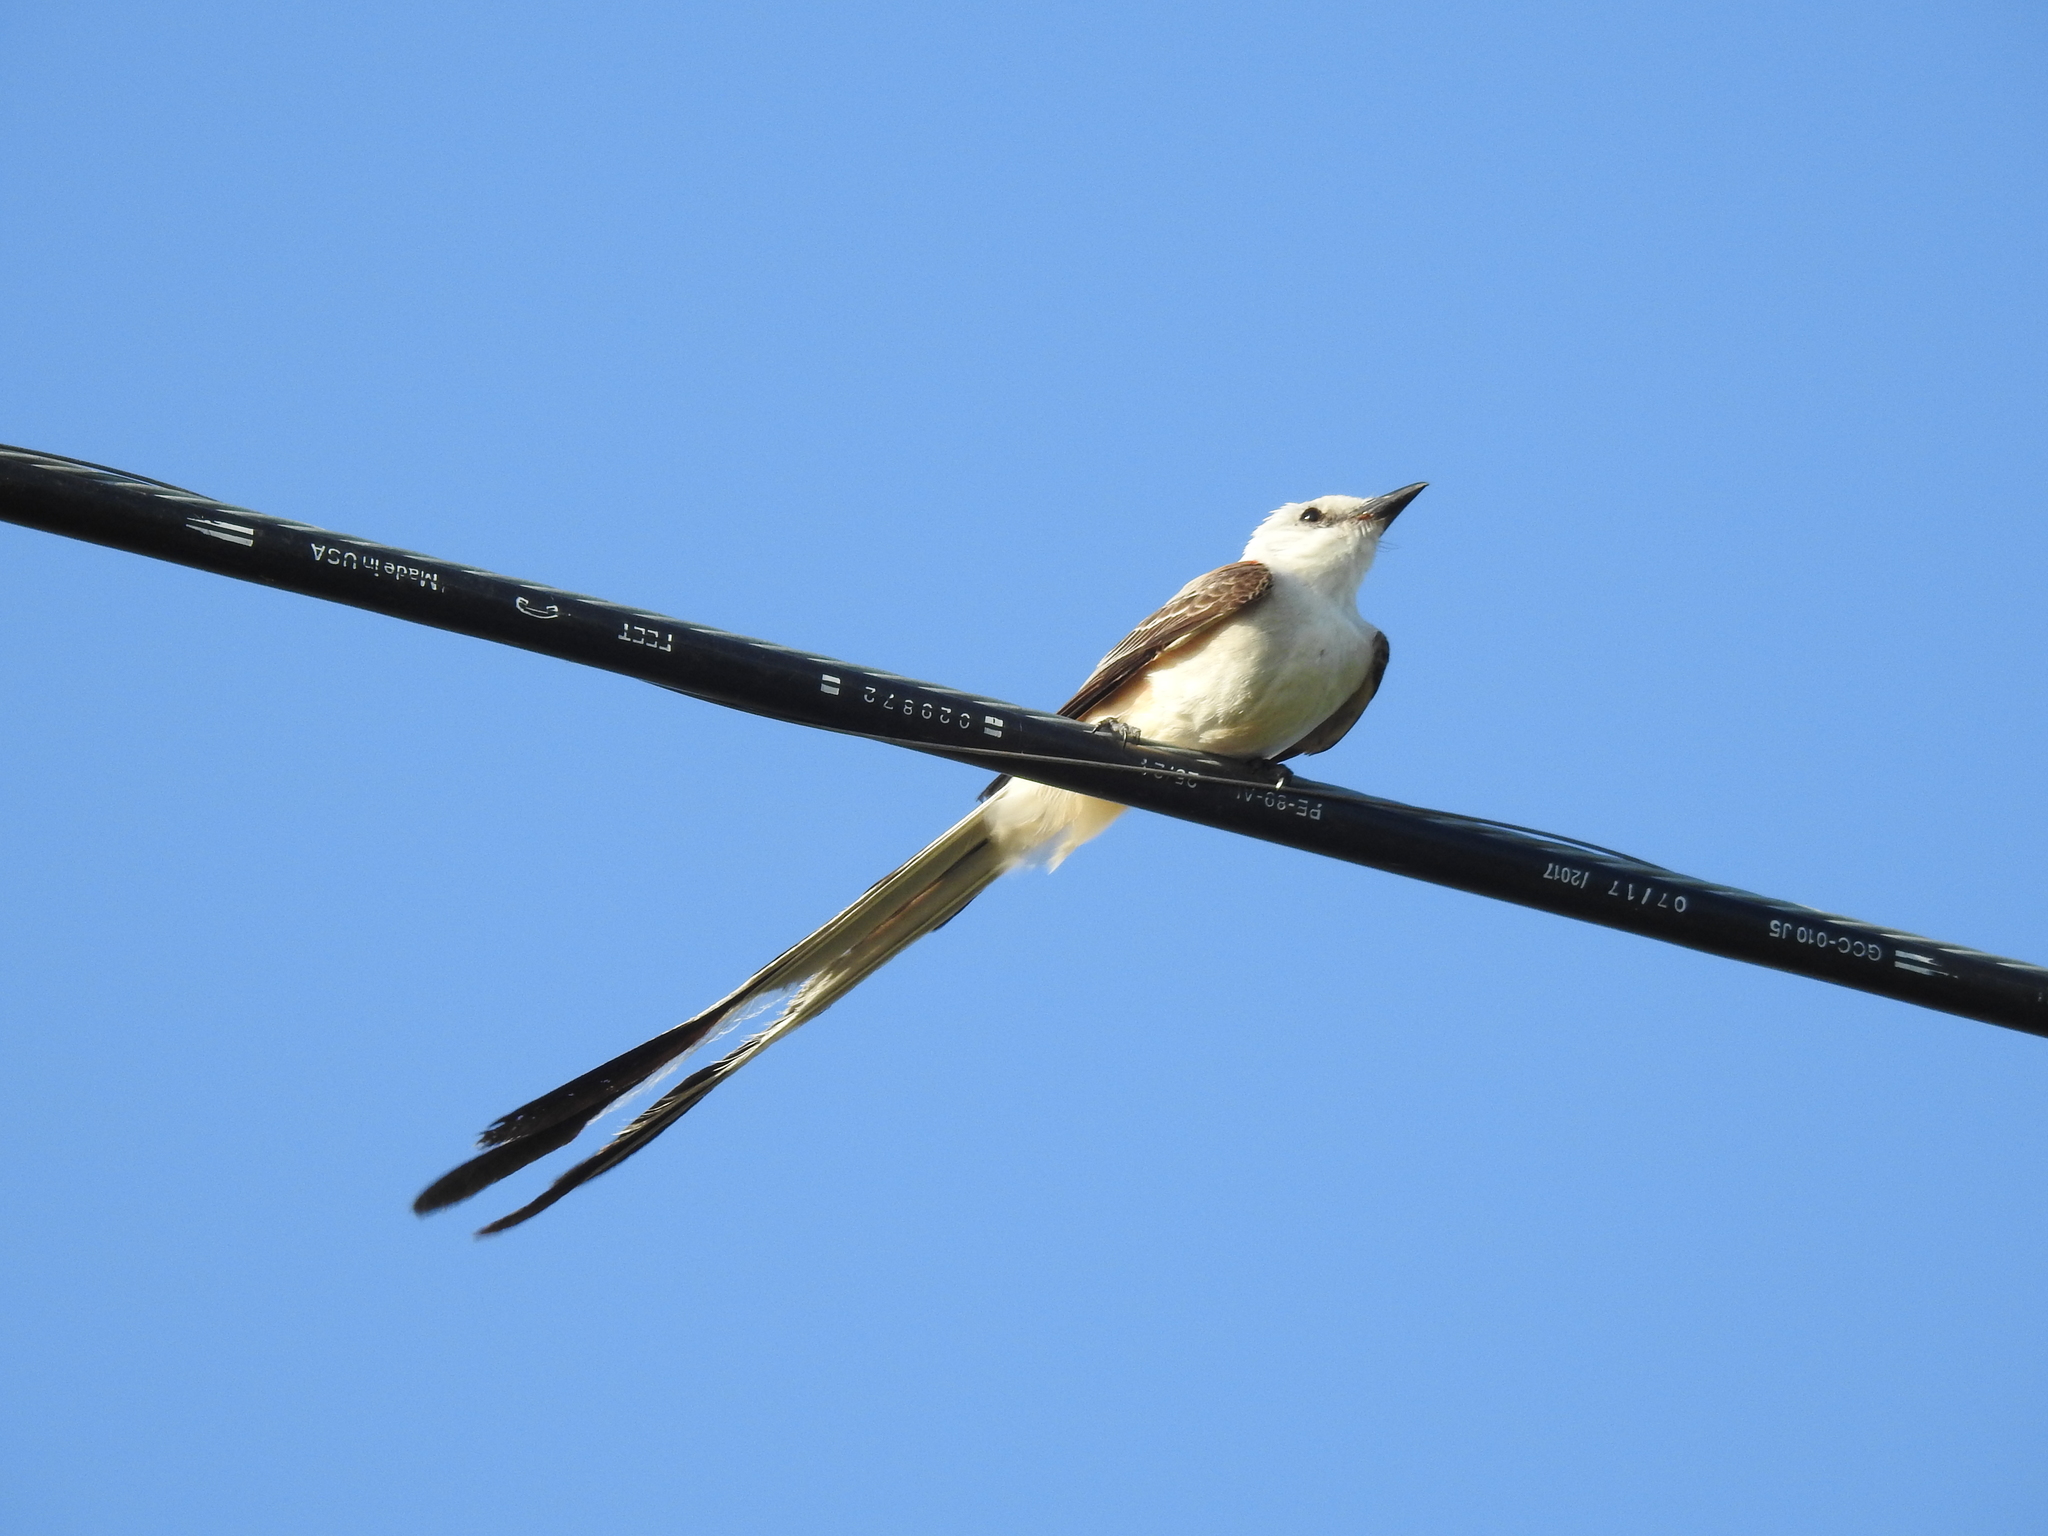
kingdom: Animalia
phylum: Chordata
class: Aves
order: Passeriformes
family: Tyrannidae
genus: Tyrannus
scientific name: Tyrannus forficatus
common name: Scissor-tailed flycatcher
